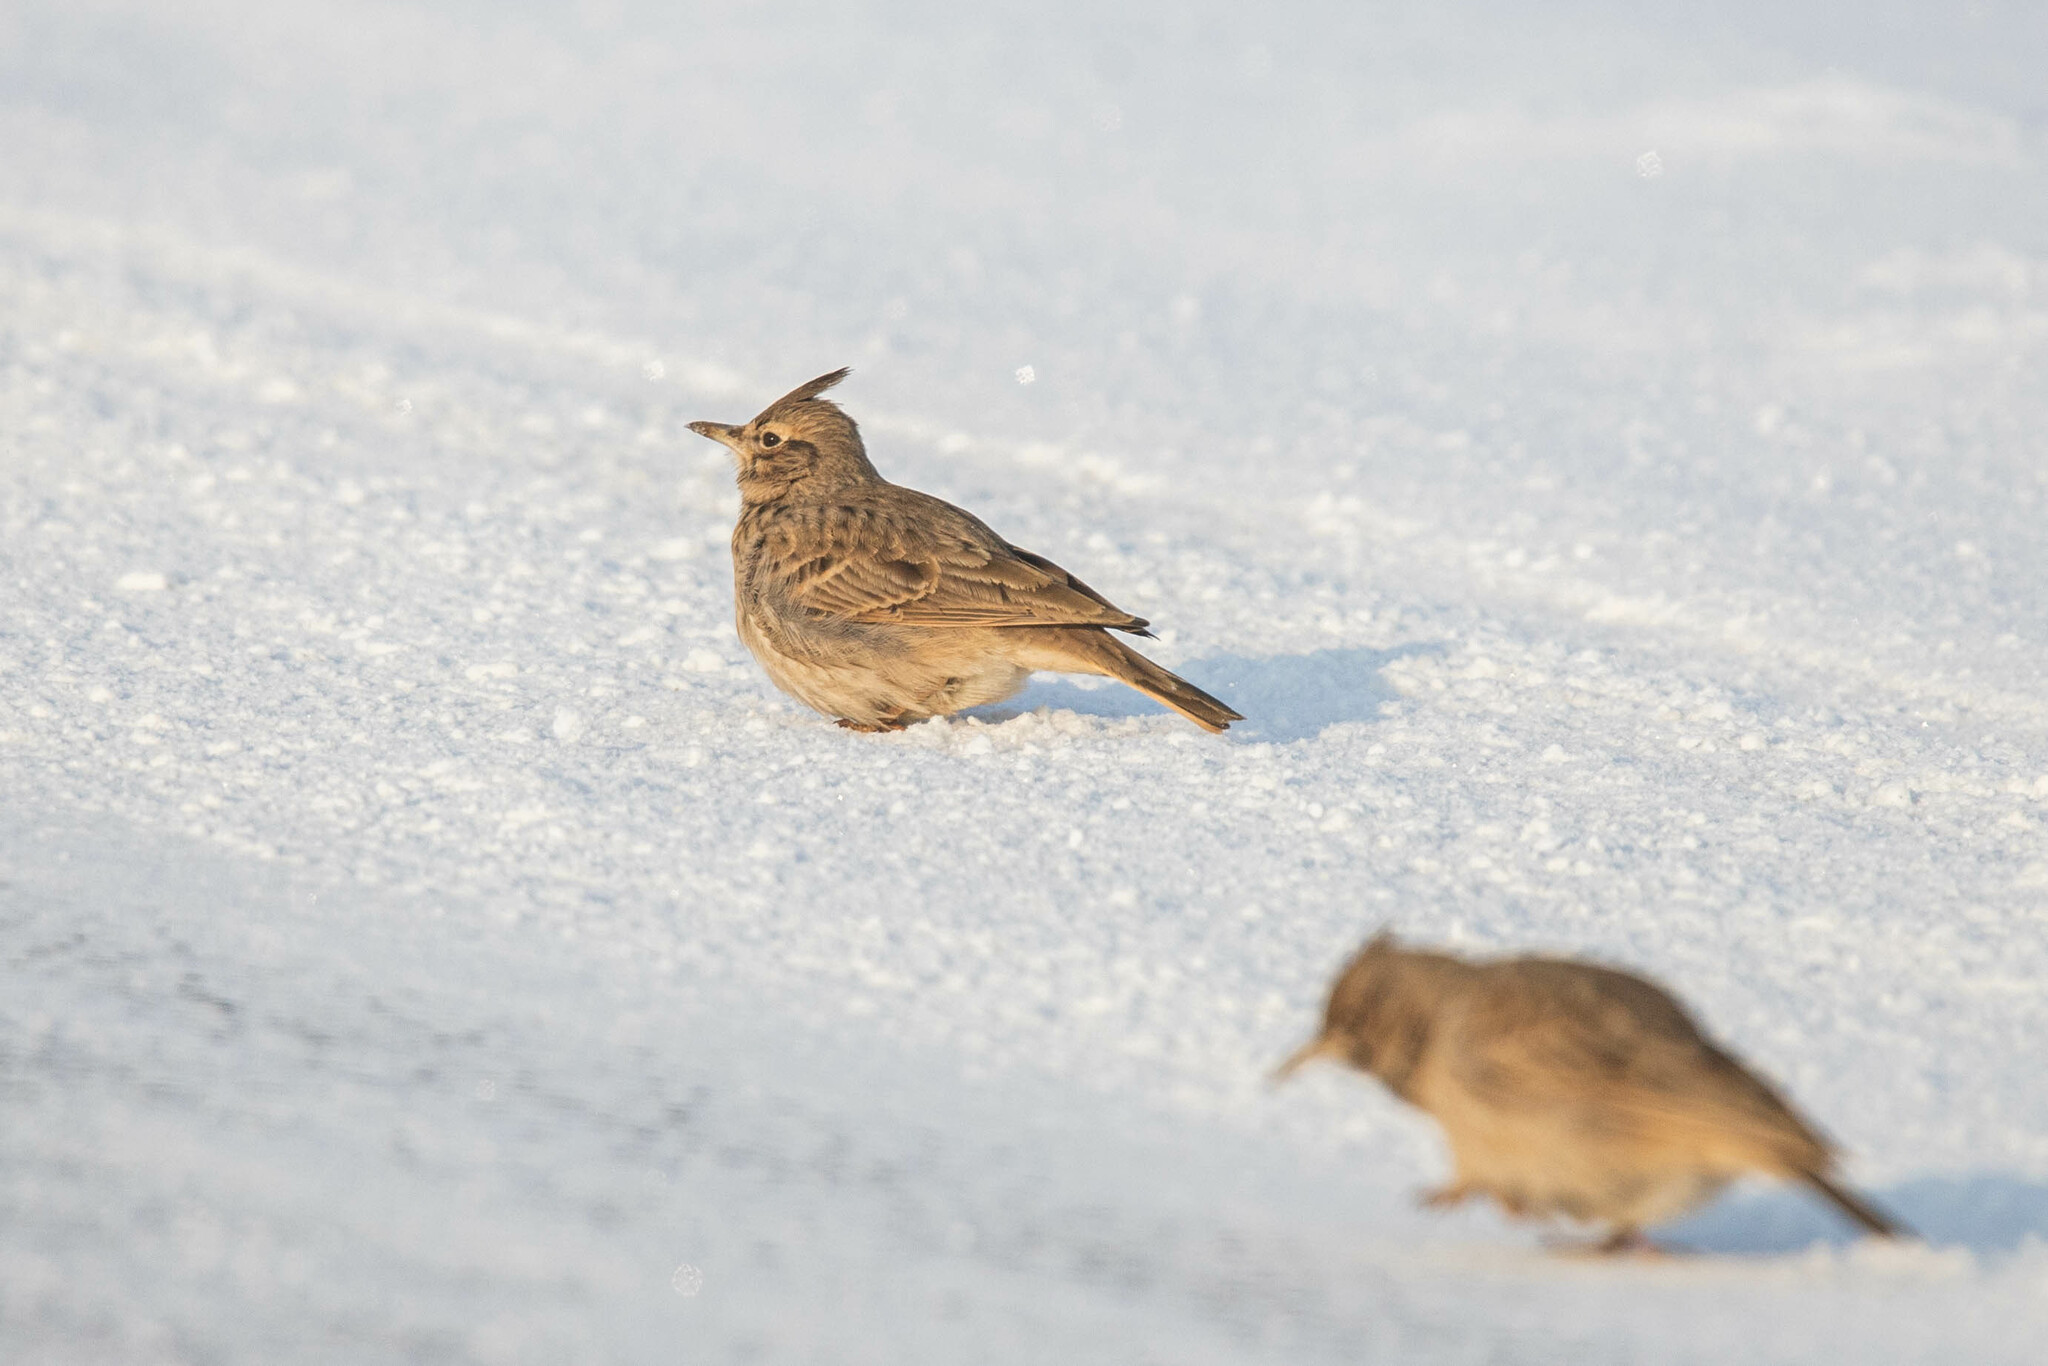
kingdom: Animalia
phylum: Chordata
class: Aves
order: Passeriformes
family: Alaudidae
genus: Galerida
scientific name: Galerida cristata
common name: Crested lark
